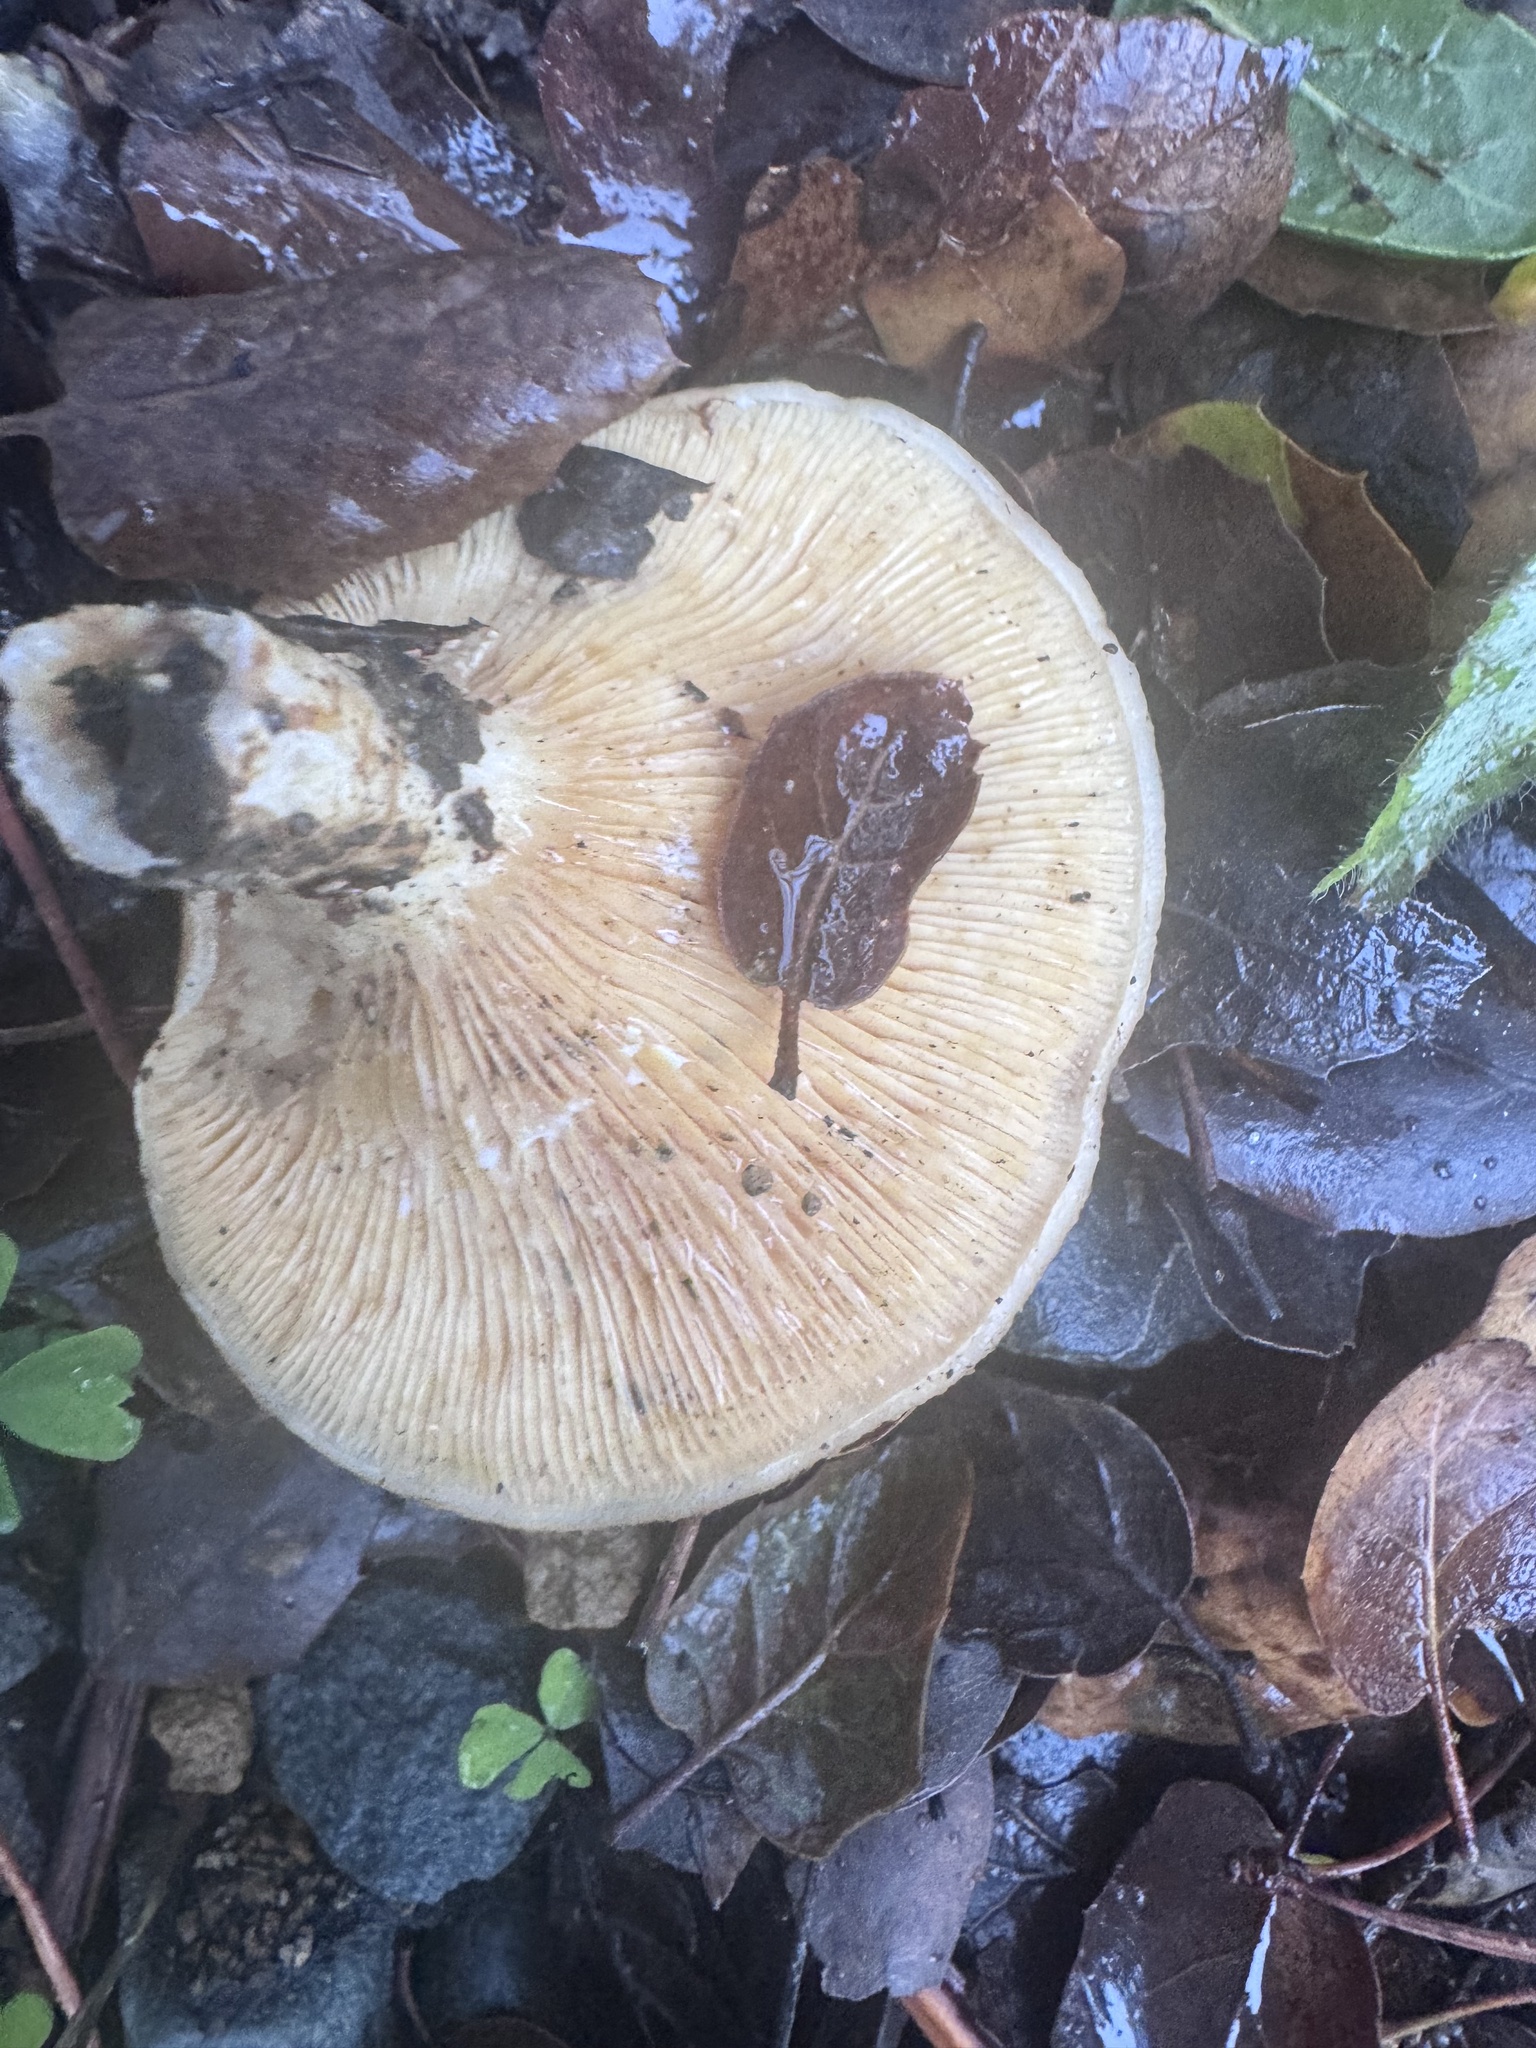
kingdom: Fungi
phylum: Basidiomycota
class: Agaricomycetes
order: Russulales
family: Russulaceae
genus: Lactarius
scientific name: Lactarius alnicola
